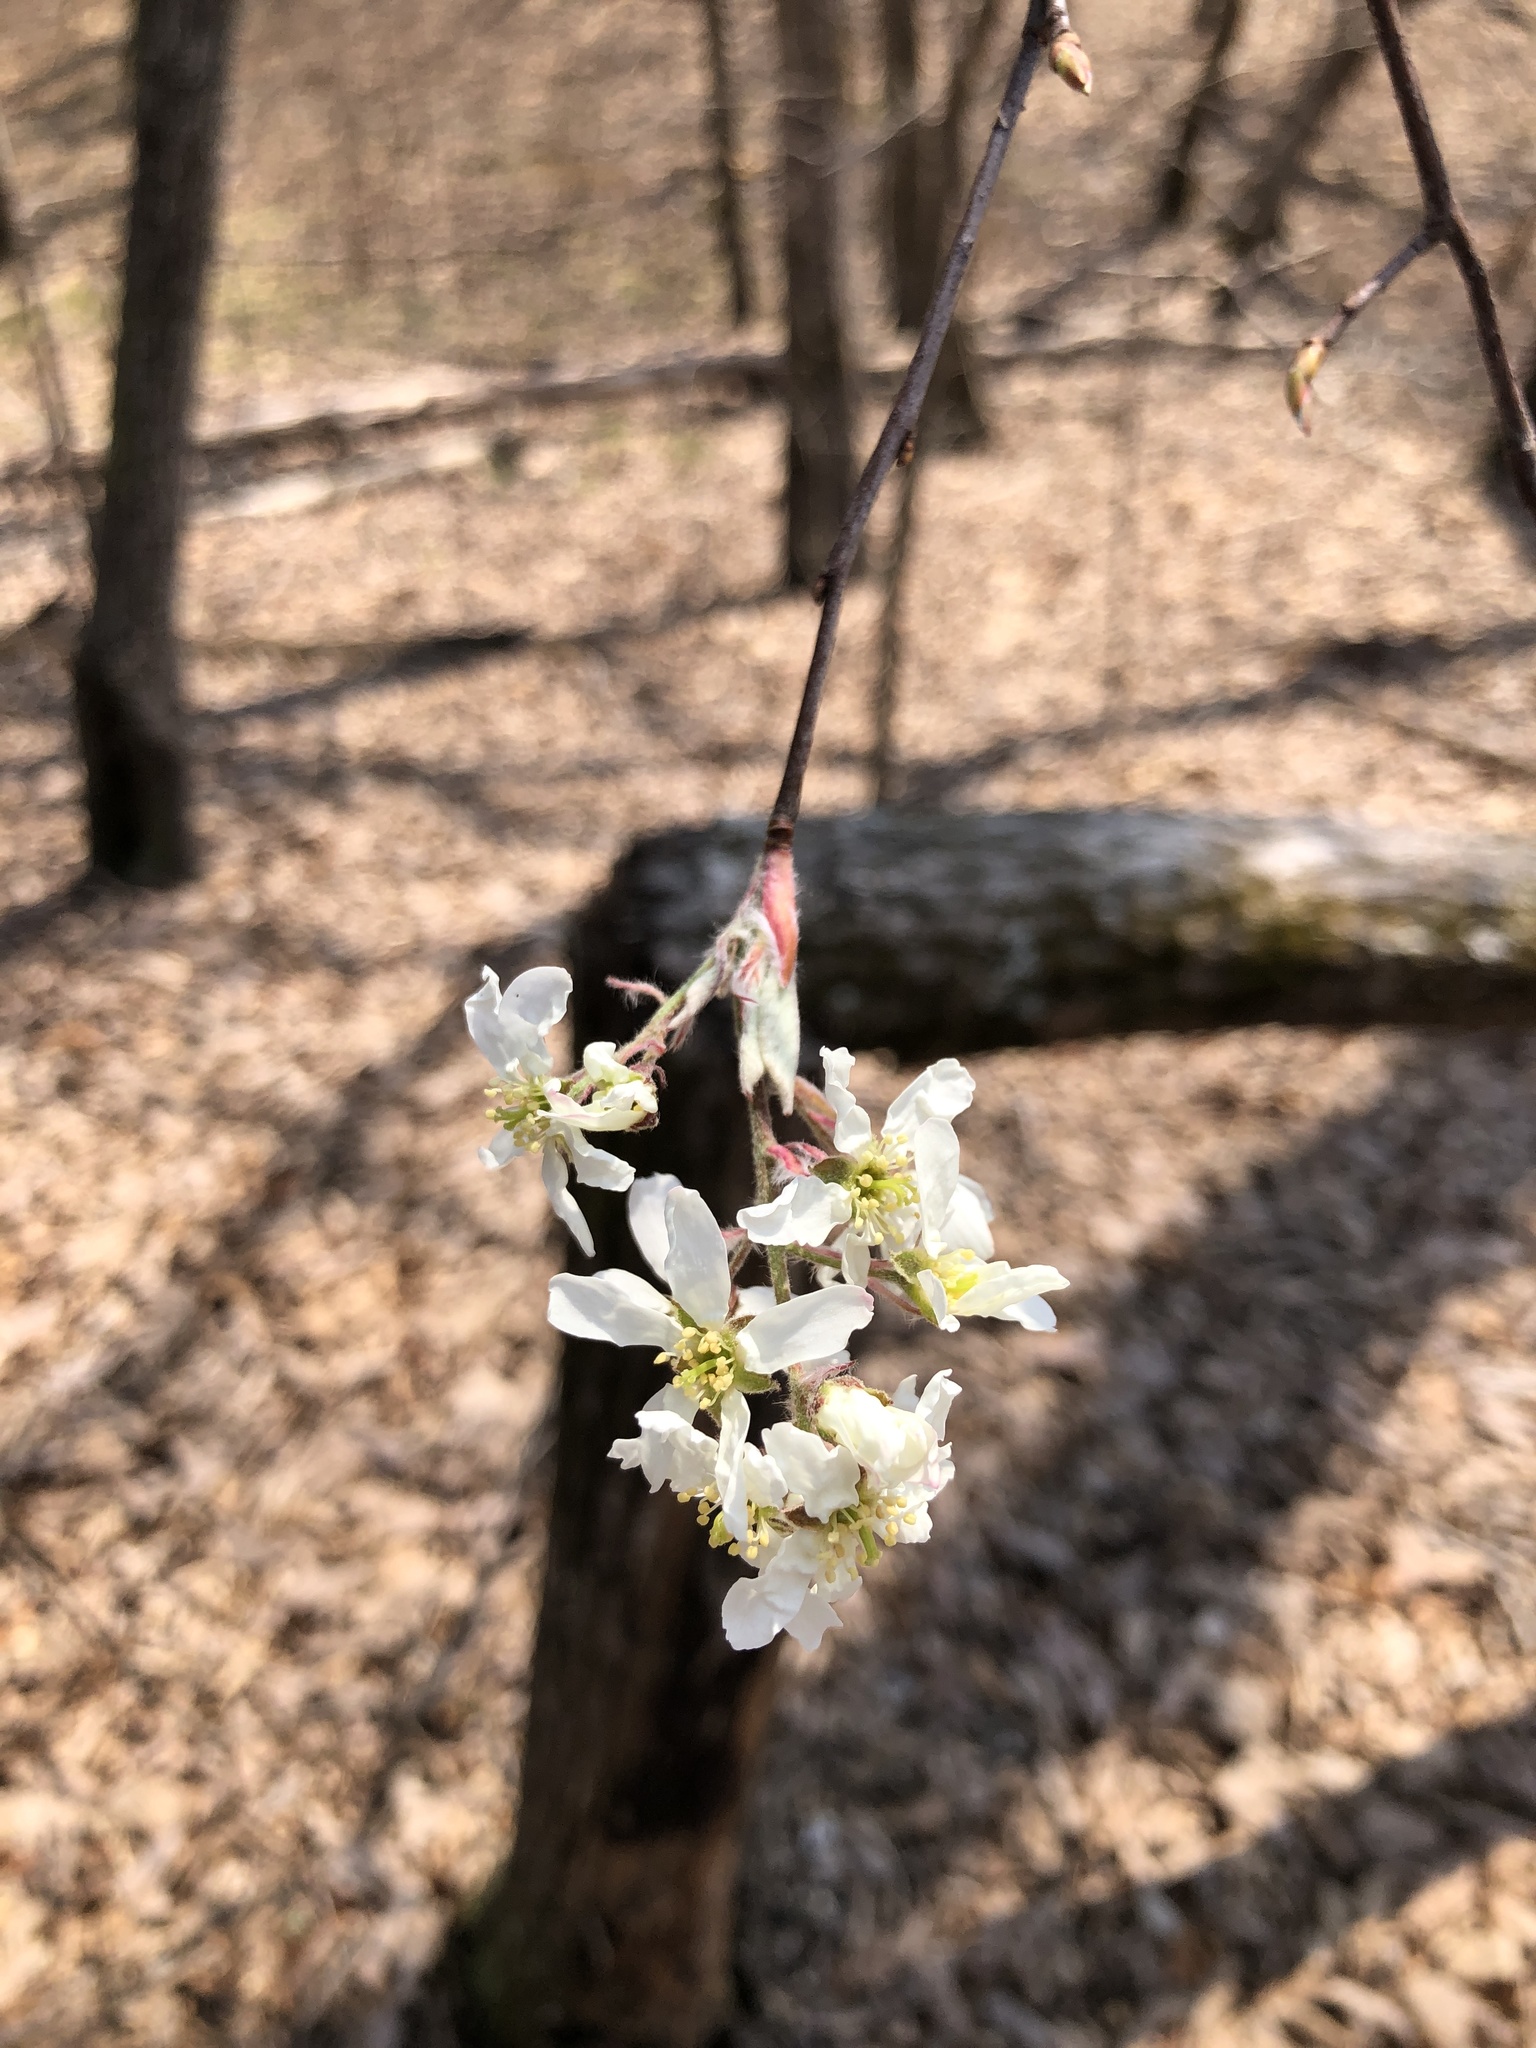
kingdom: Plantae
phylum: Tracheophyta
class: Magnoliopsida
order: Rosales
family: Rosaceae
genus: Amelanchier
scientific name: Amelanchier arborea
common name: Downy serviceberry
